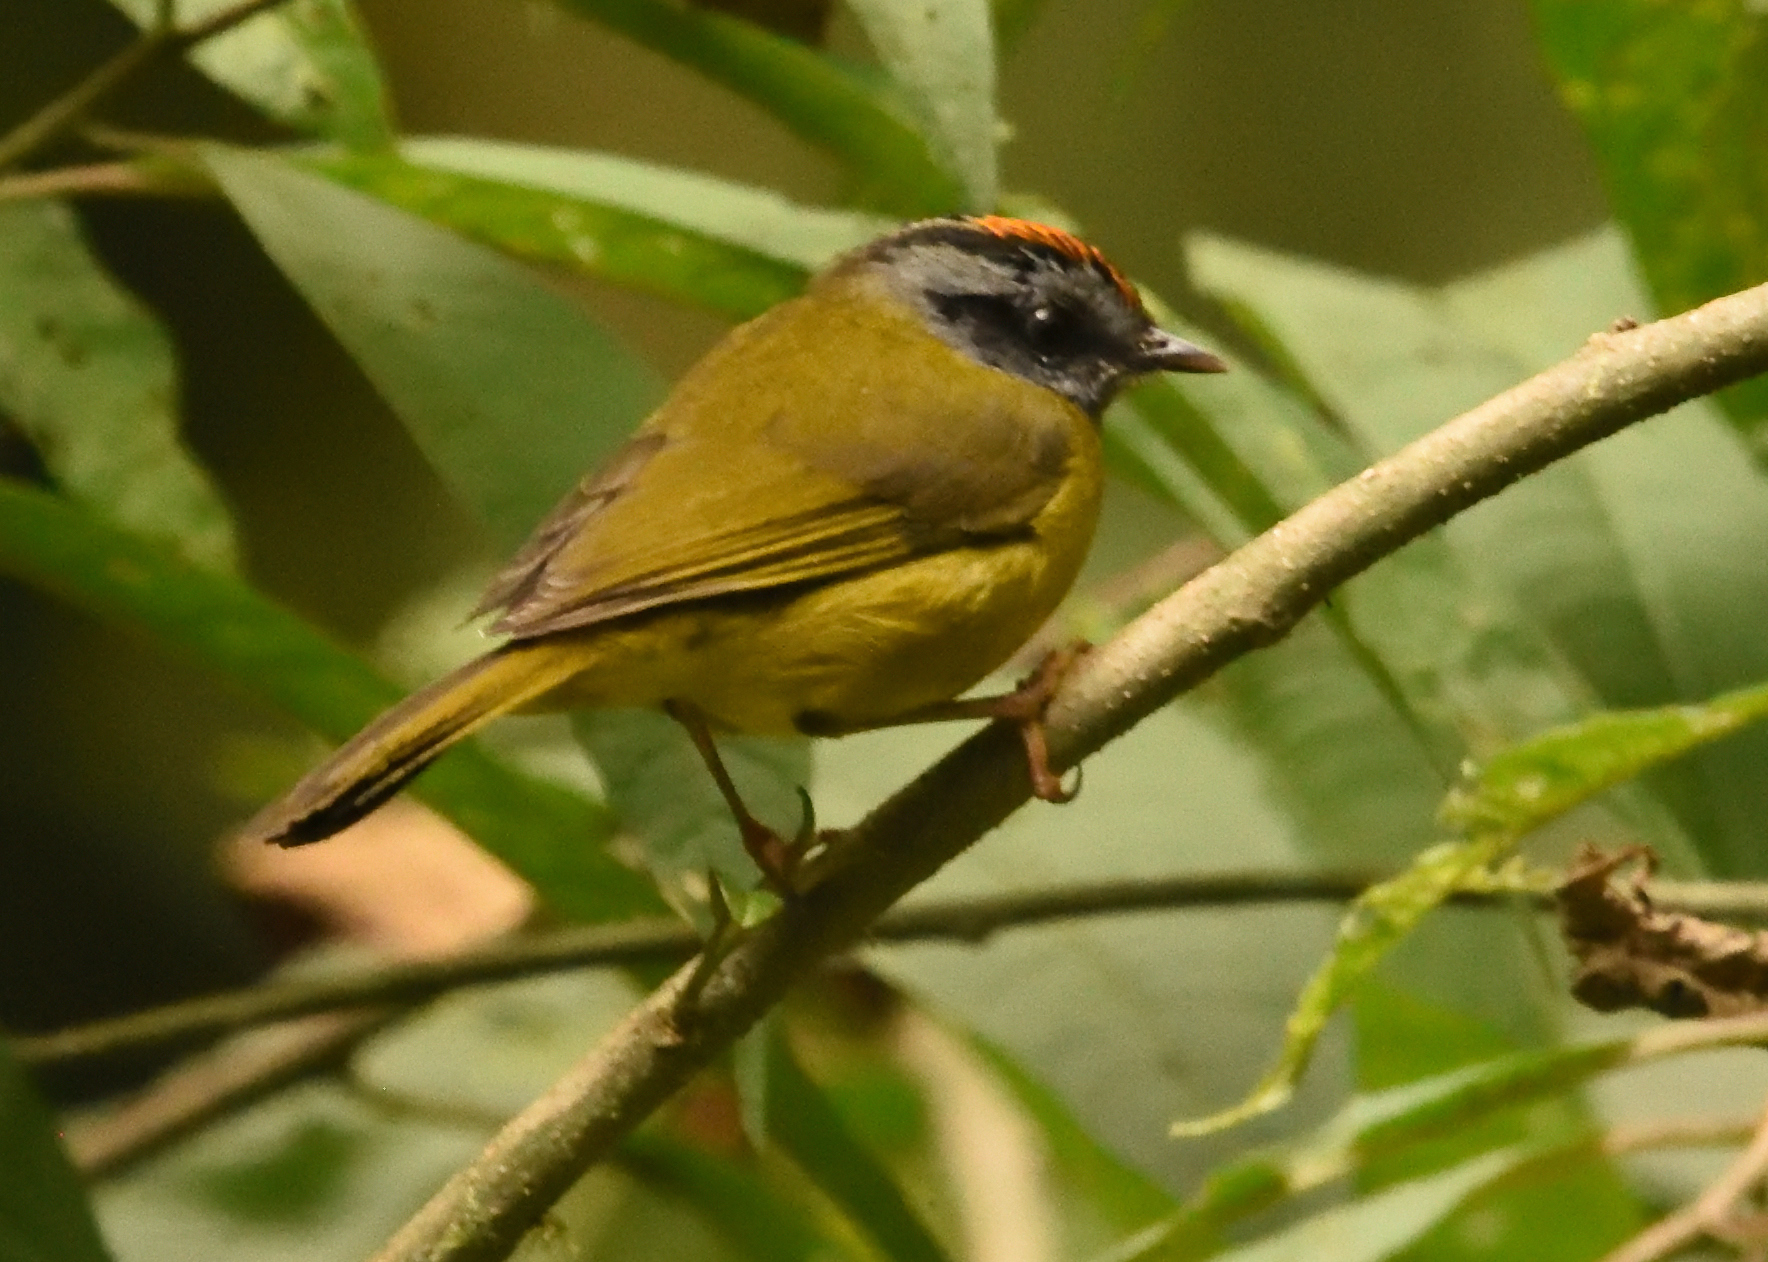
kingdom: Animalia
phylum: Chordata
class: Aves
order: Passeriformes
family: Parulidae
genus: Myiothlypis
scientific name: Myiothlypis coronata
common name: Russet-crowned warbler
